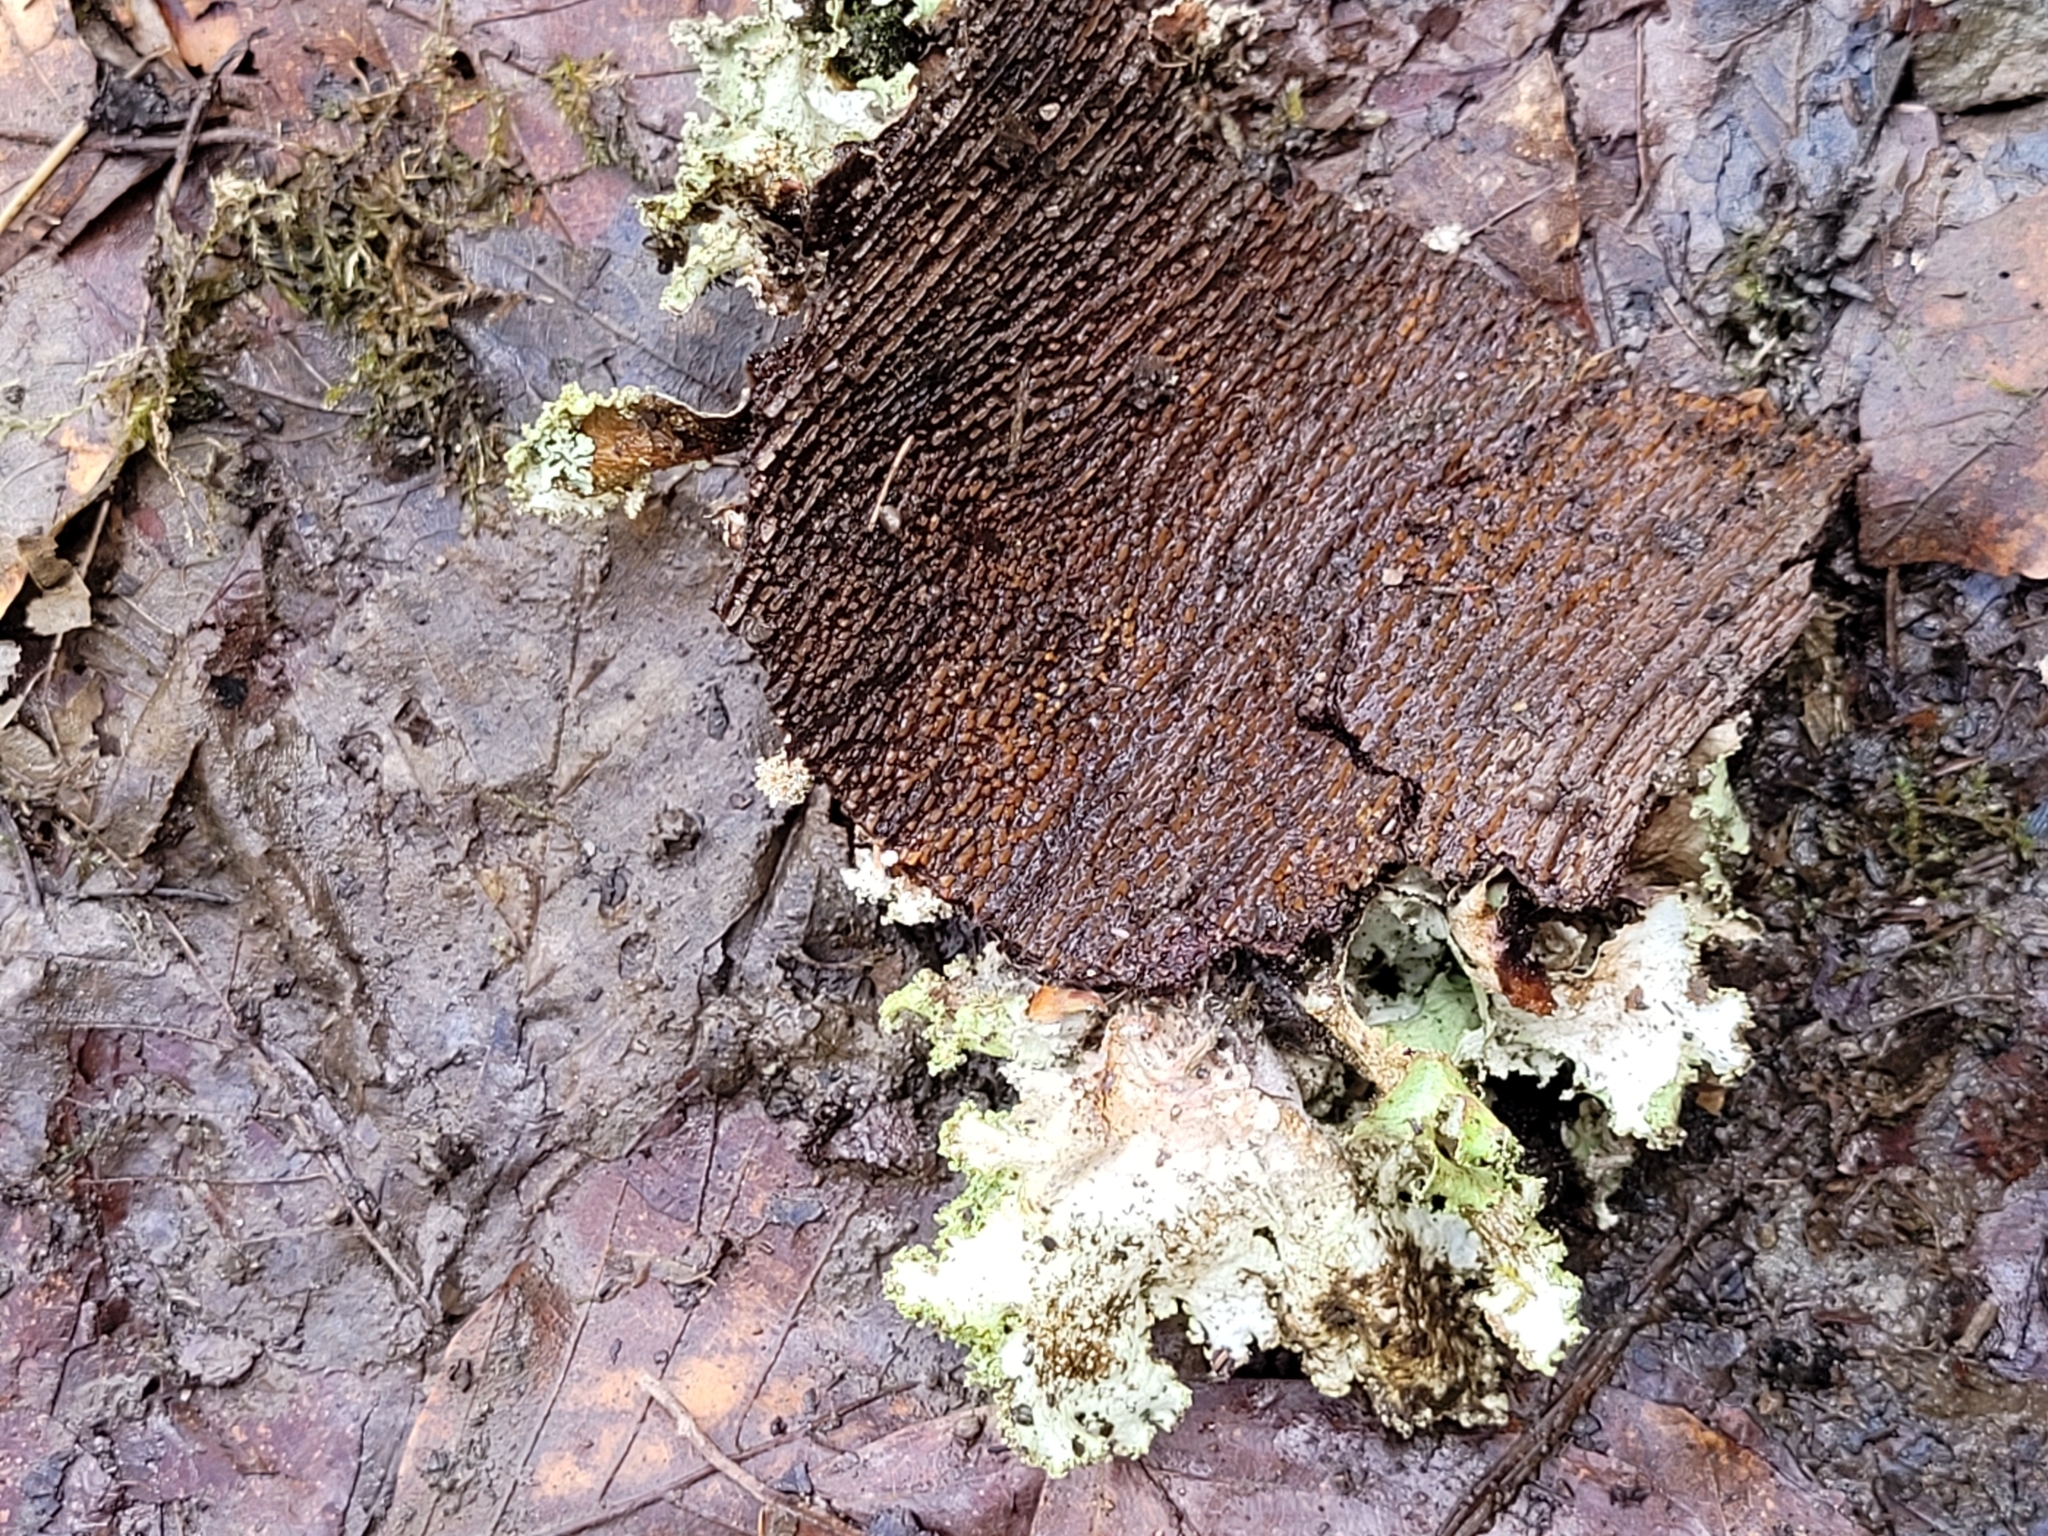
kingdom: Fungi
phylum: Ascomycota
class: Lecanoromycetes
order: Lecanorales
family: Parmeliaceae
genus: Platismatia
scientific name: Platismatia glauca
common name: Varied rag lichen
